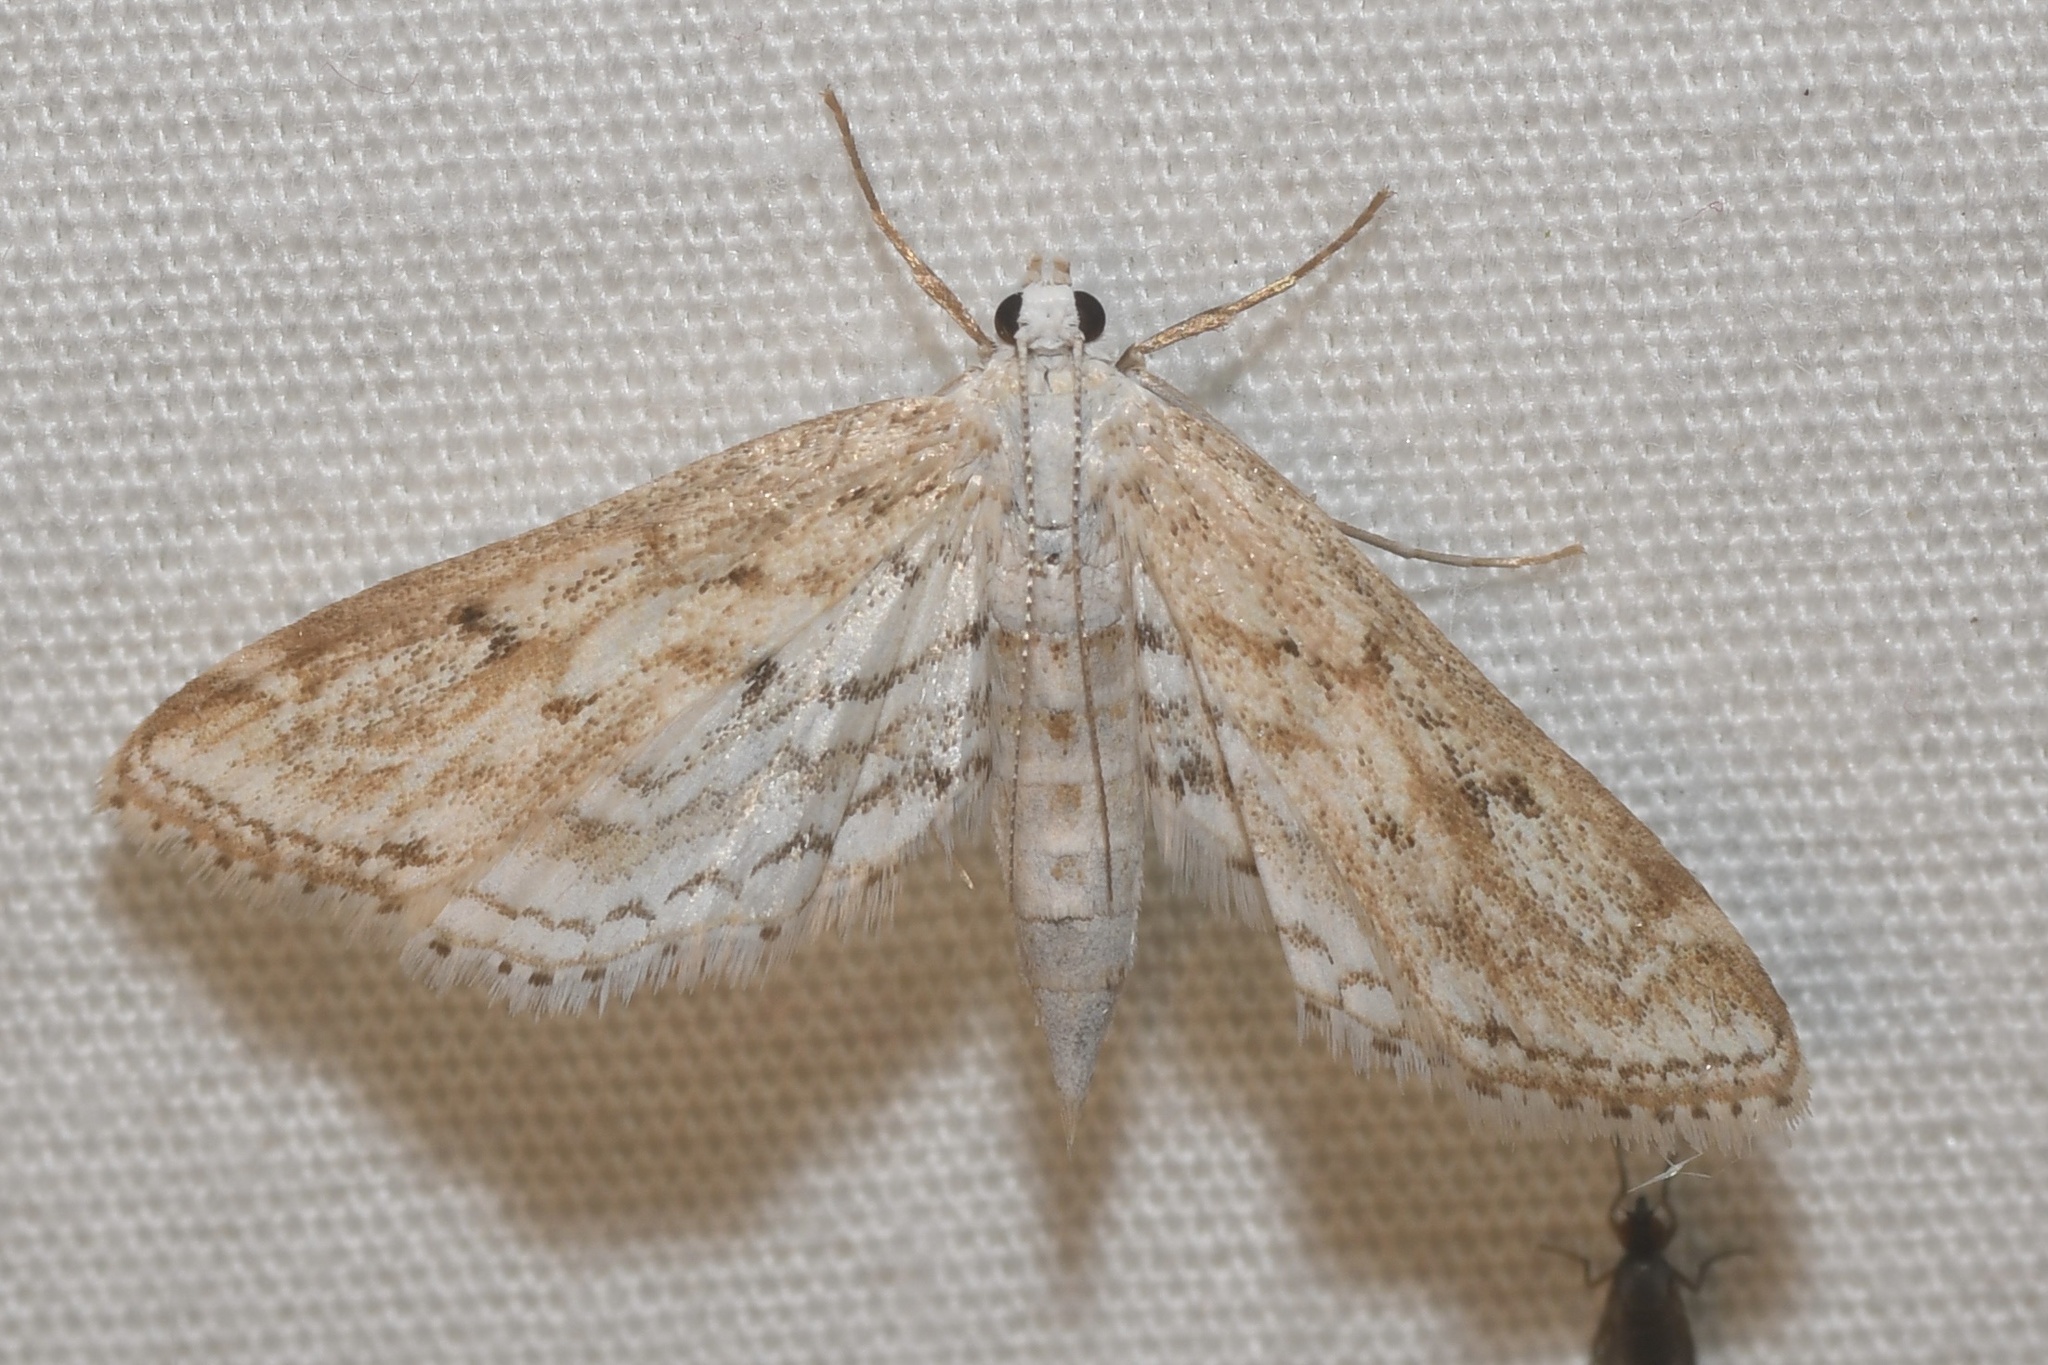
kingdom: Animalia
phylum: Arthropoda
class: Insecta
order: Lepidoptera
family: Crambidae
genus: Parapoynx
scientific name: Parapoynx allionealis
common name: Bladderwort casemaker
